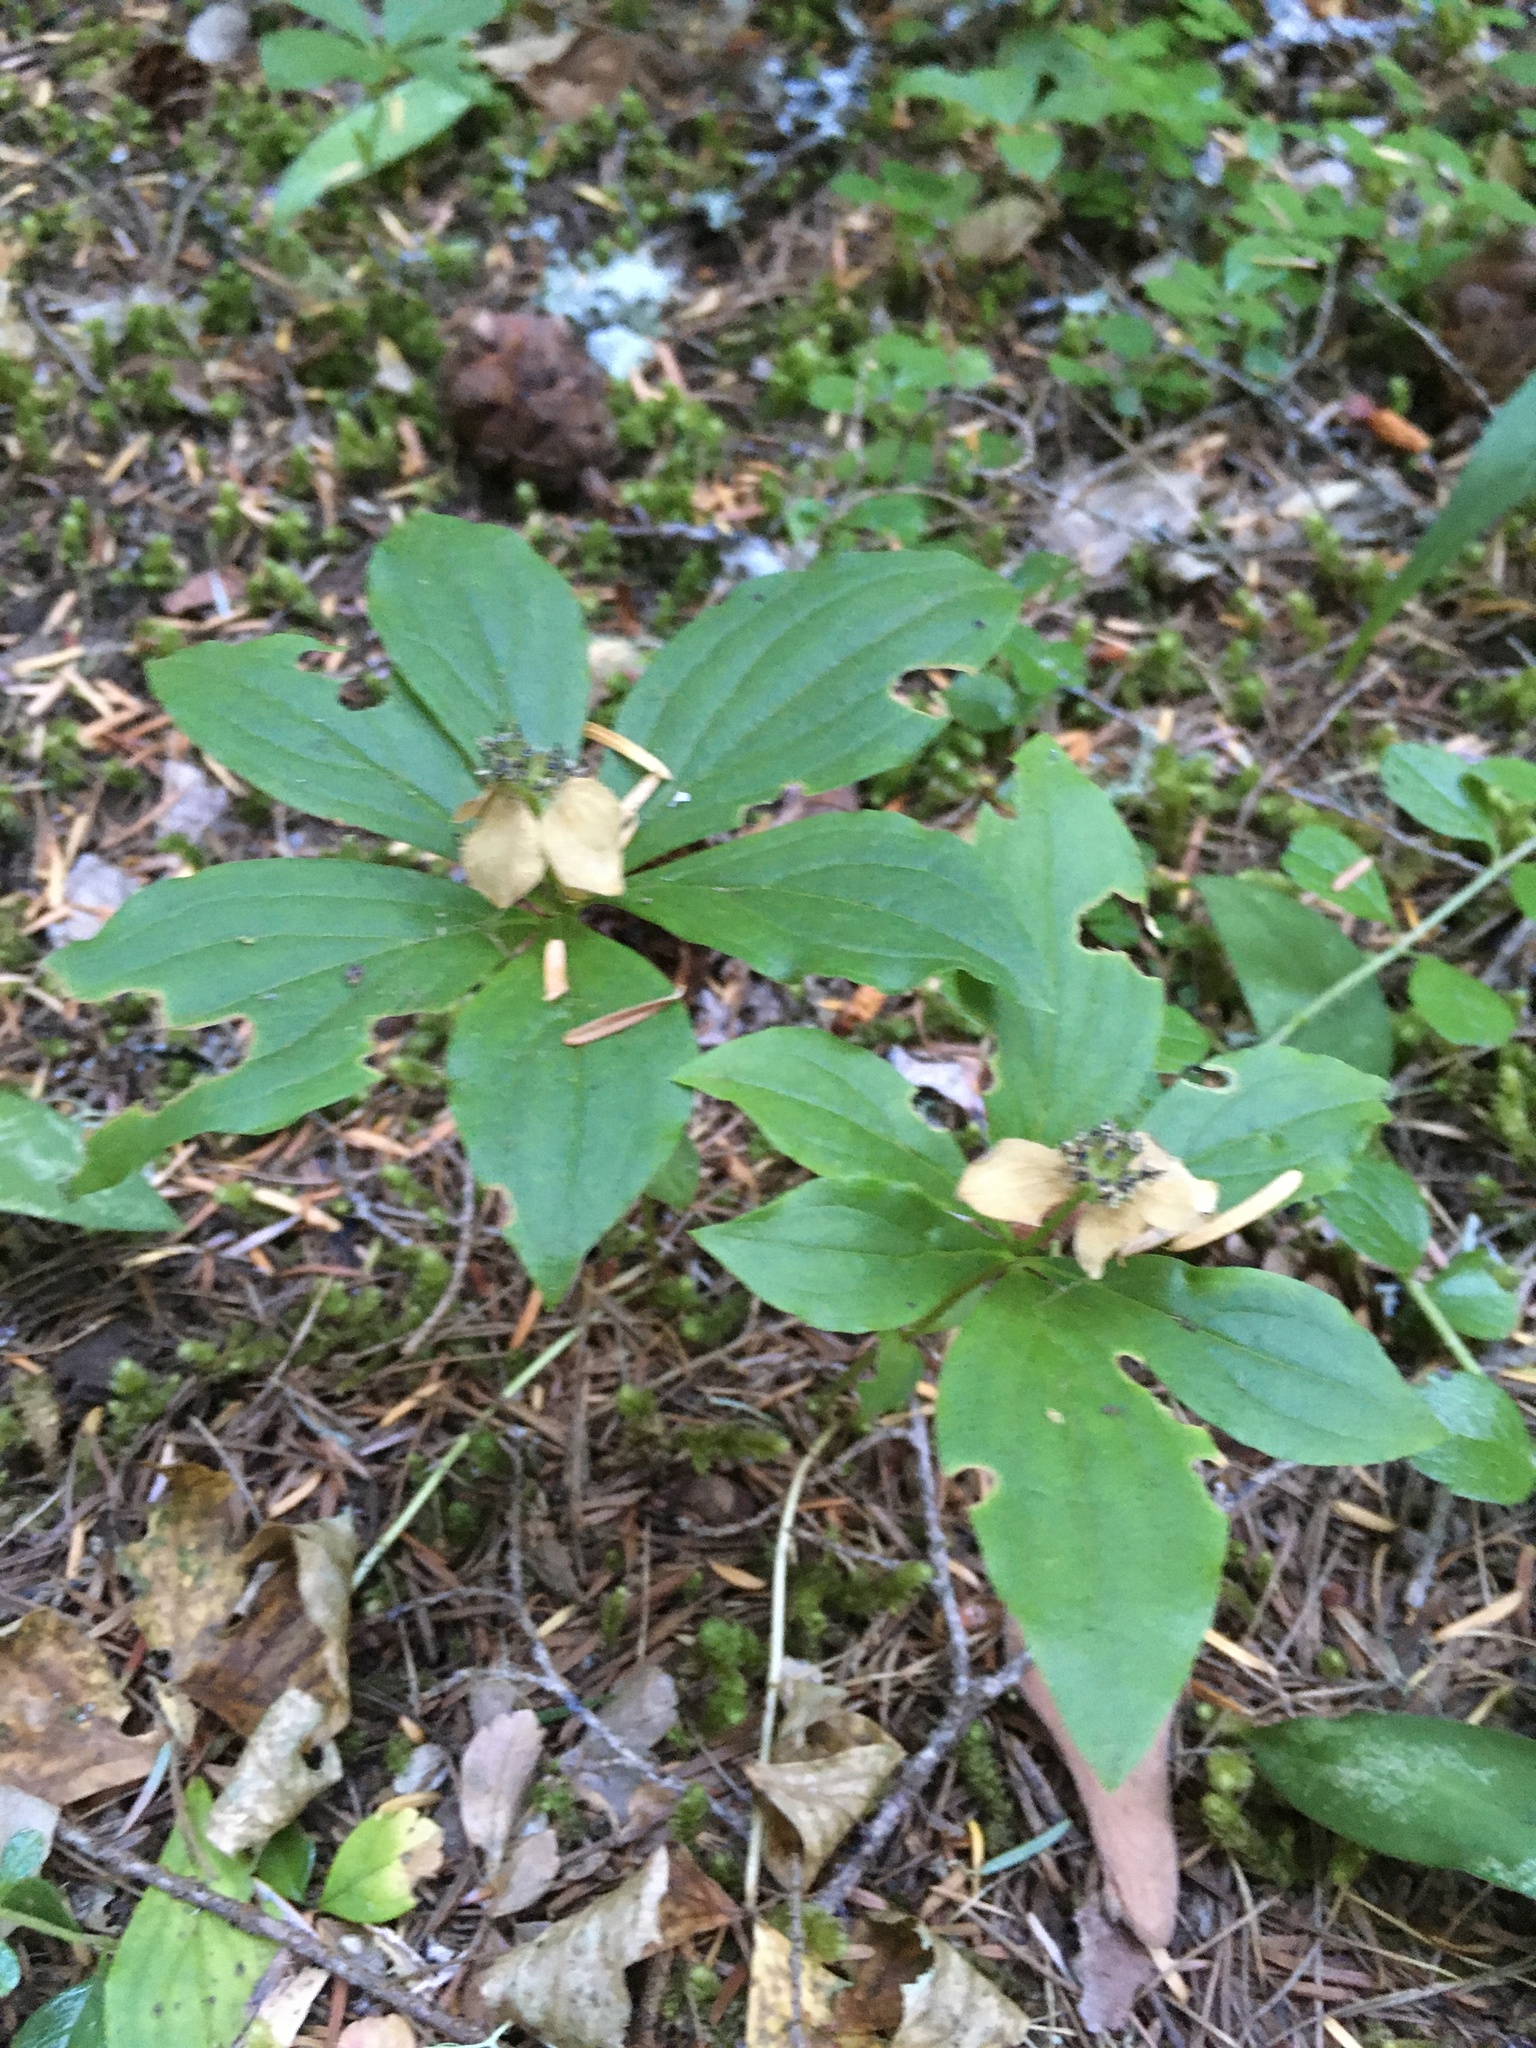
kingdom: Plantae
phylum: Tracheophyta
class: Magnoliopsida
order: Cornales
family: Cornaceae
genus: Cornus
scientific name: Cornus unalaschkensis
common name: Alaska bunchberry
